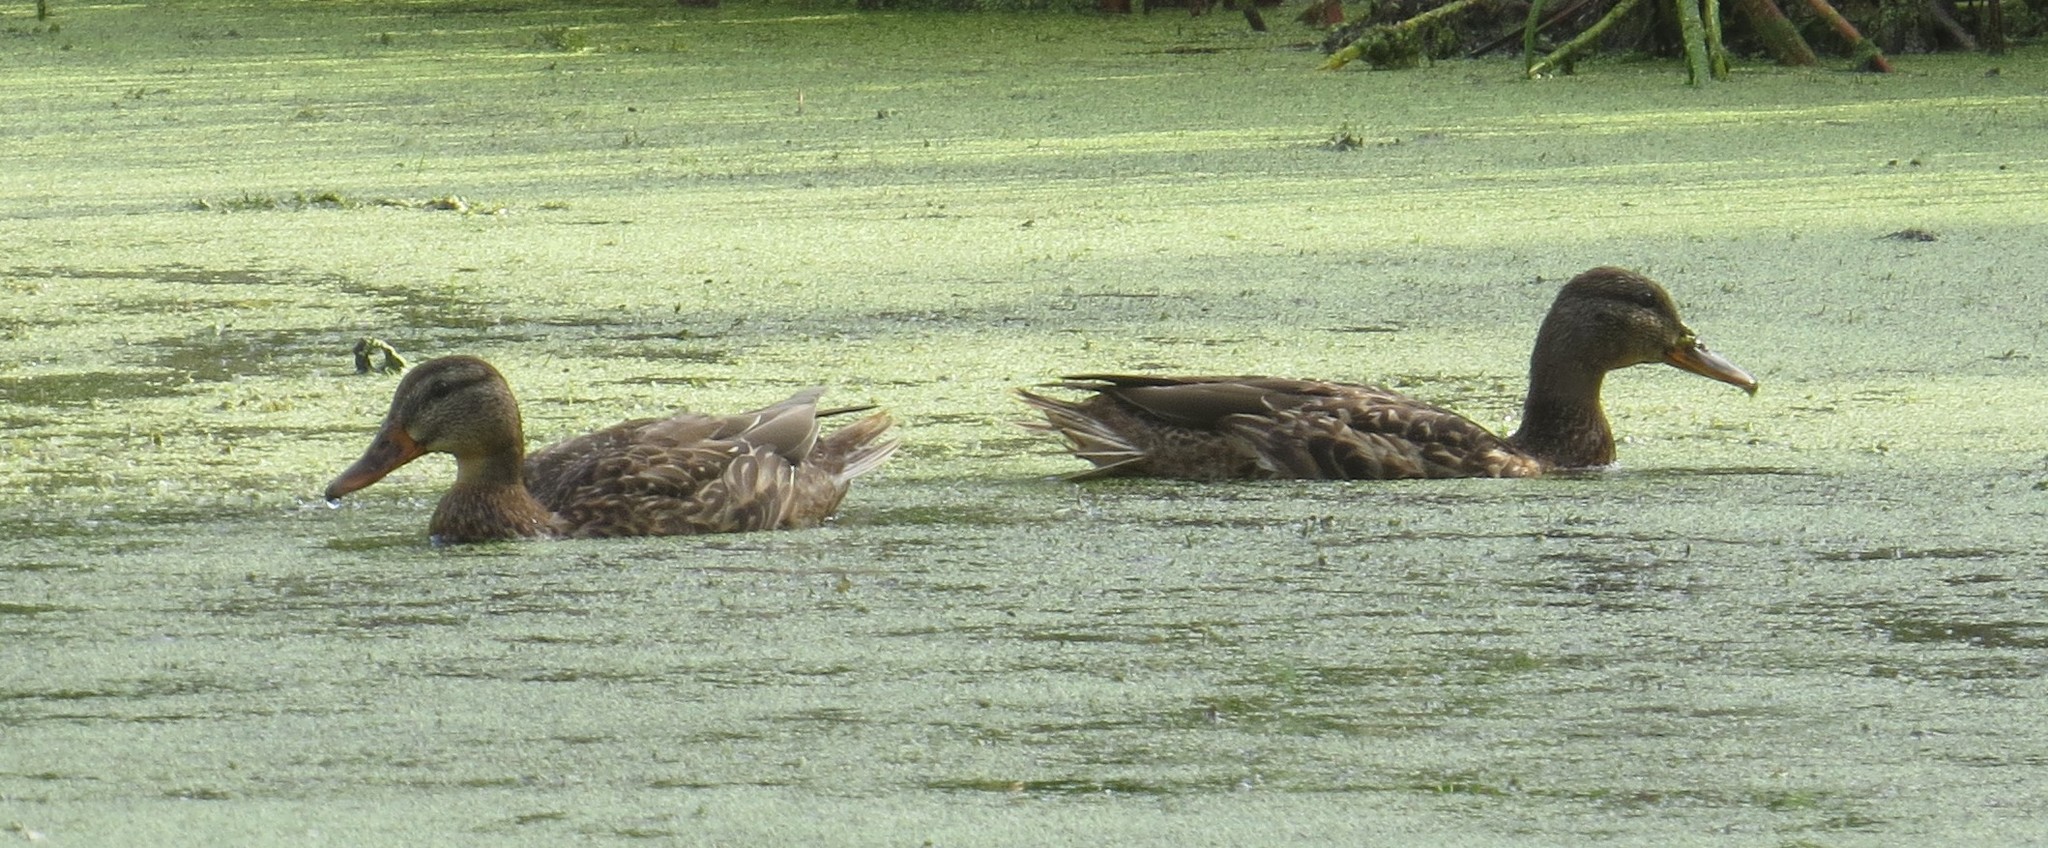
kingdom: Animalia
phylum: Chordata
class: Aves
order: Anseriformes
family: Anatidae
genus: Anas
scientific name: Anas platyrhynchos
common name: Mallard
